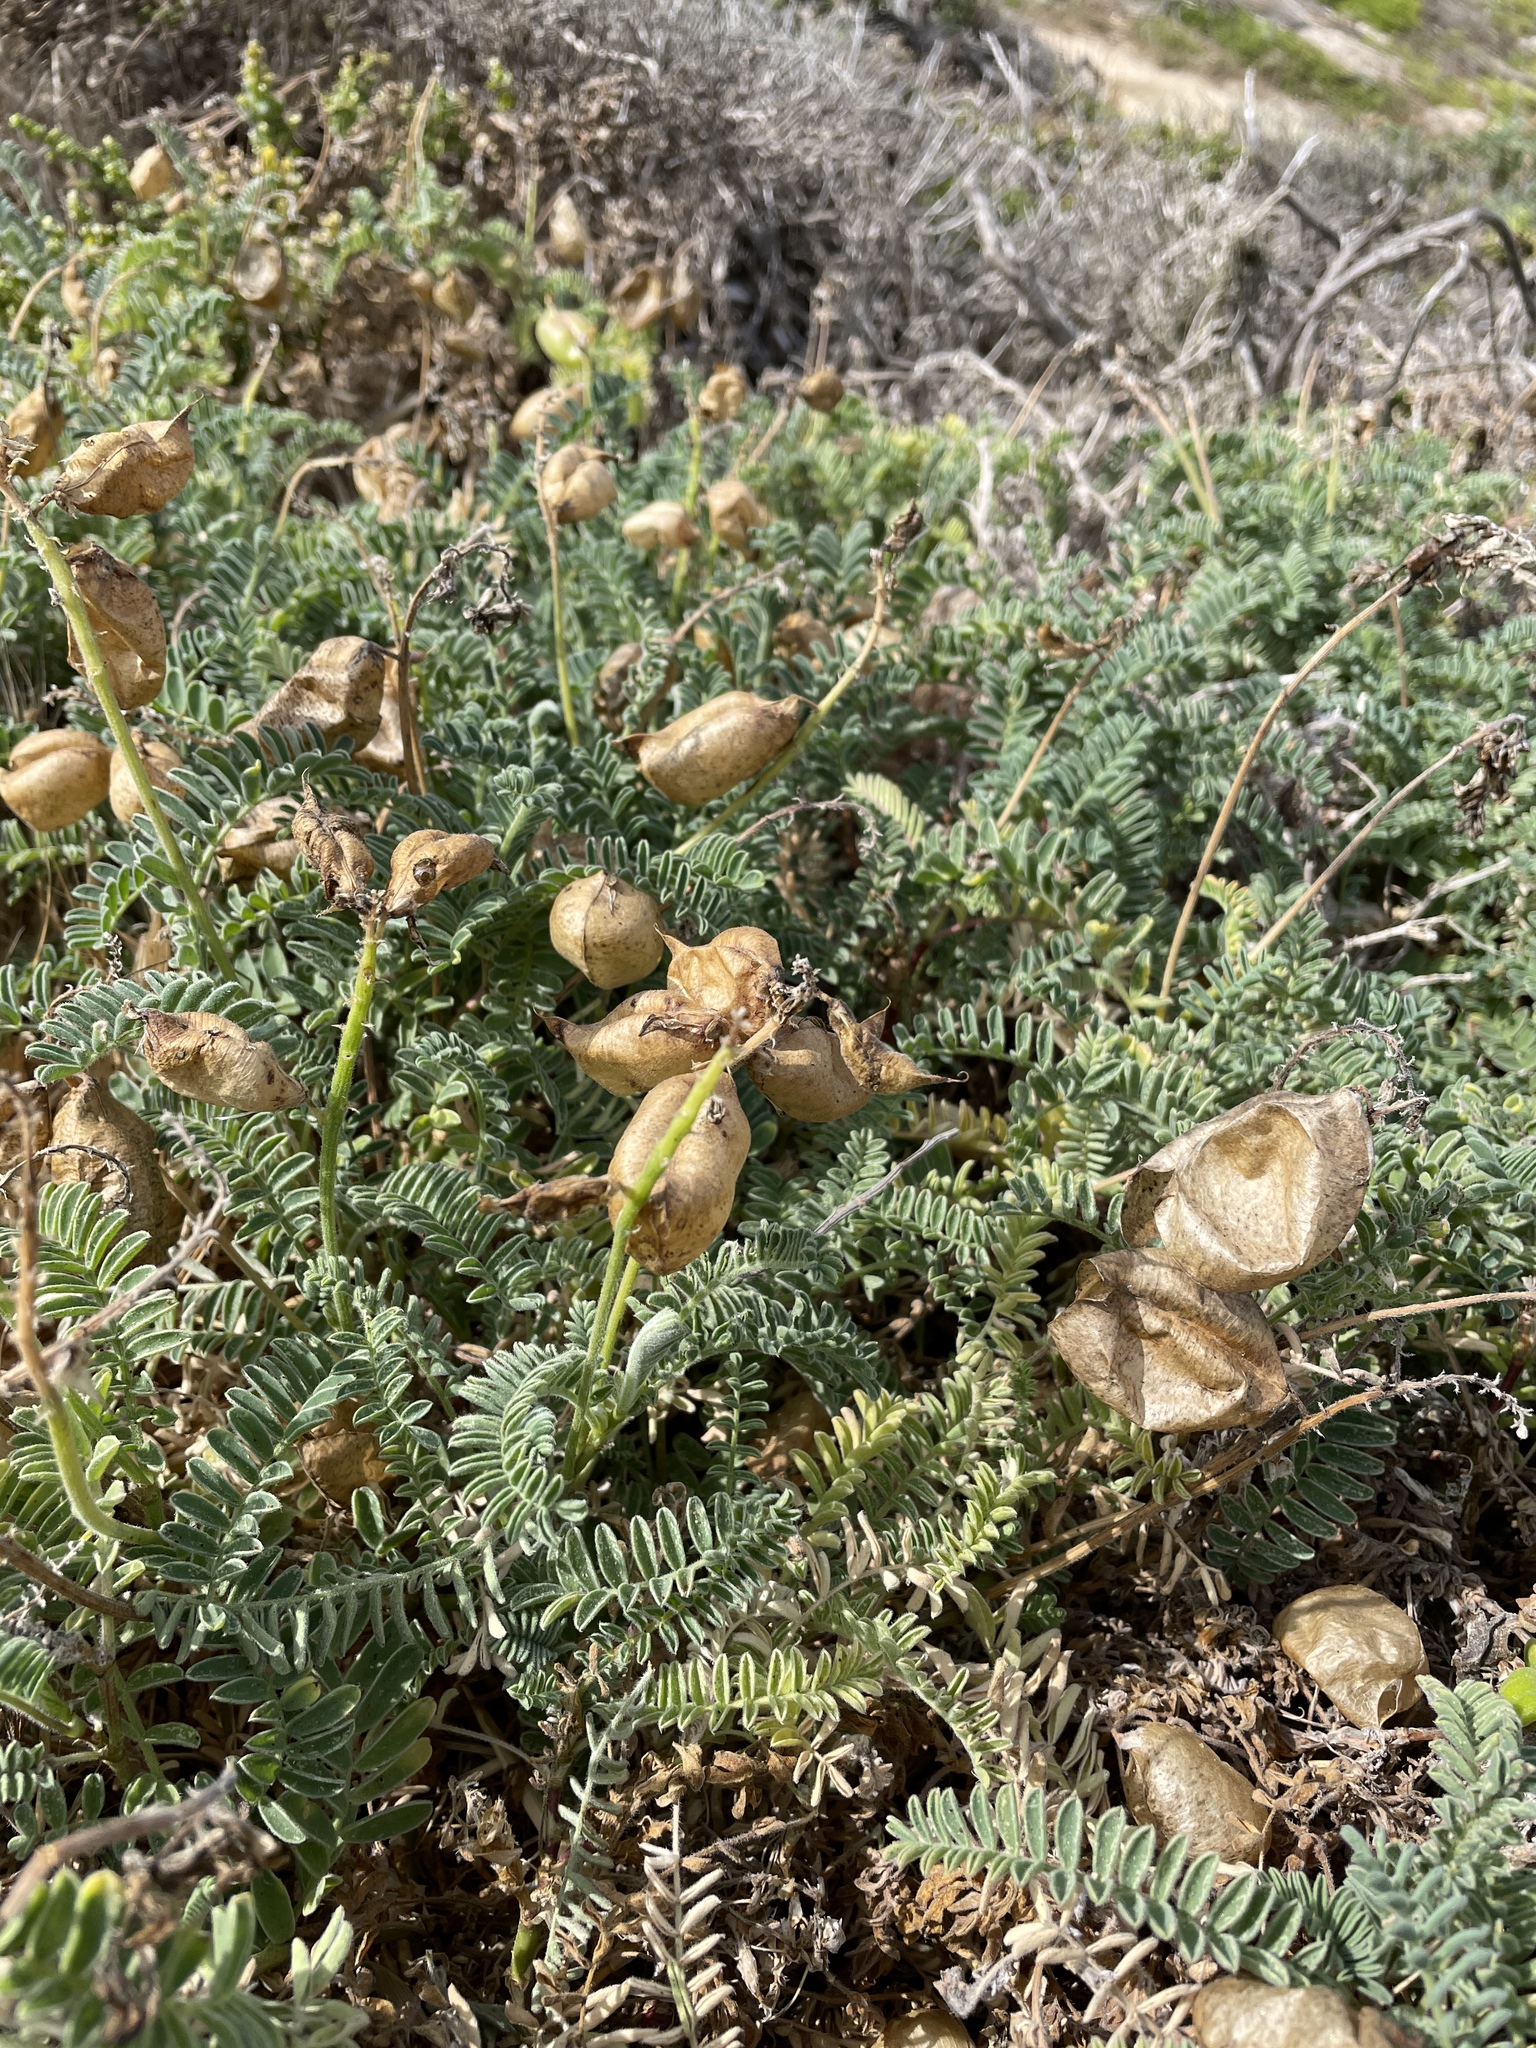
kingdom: Plantae
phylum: Tracheophyta
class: Magnoliopsida
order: Fabales
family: Fabaceae
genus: Astragalus
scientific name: Astragalus nuttallii
